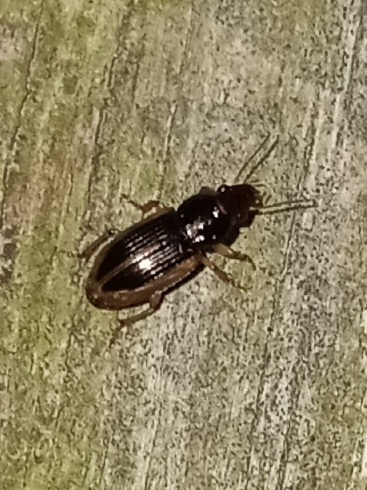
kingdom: Animalia
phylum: Arthropoda
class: Insecta
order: Coleoptera
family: Carabidae
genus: Stenolophus
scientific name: Stenolophus infuscatus
